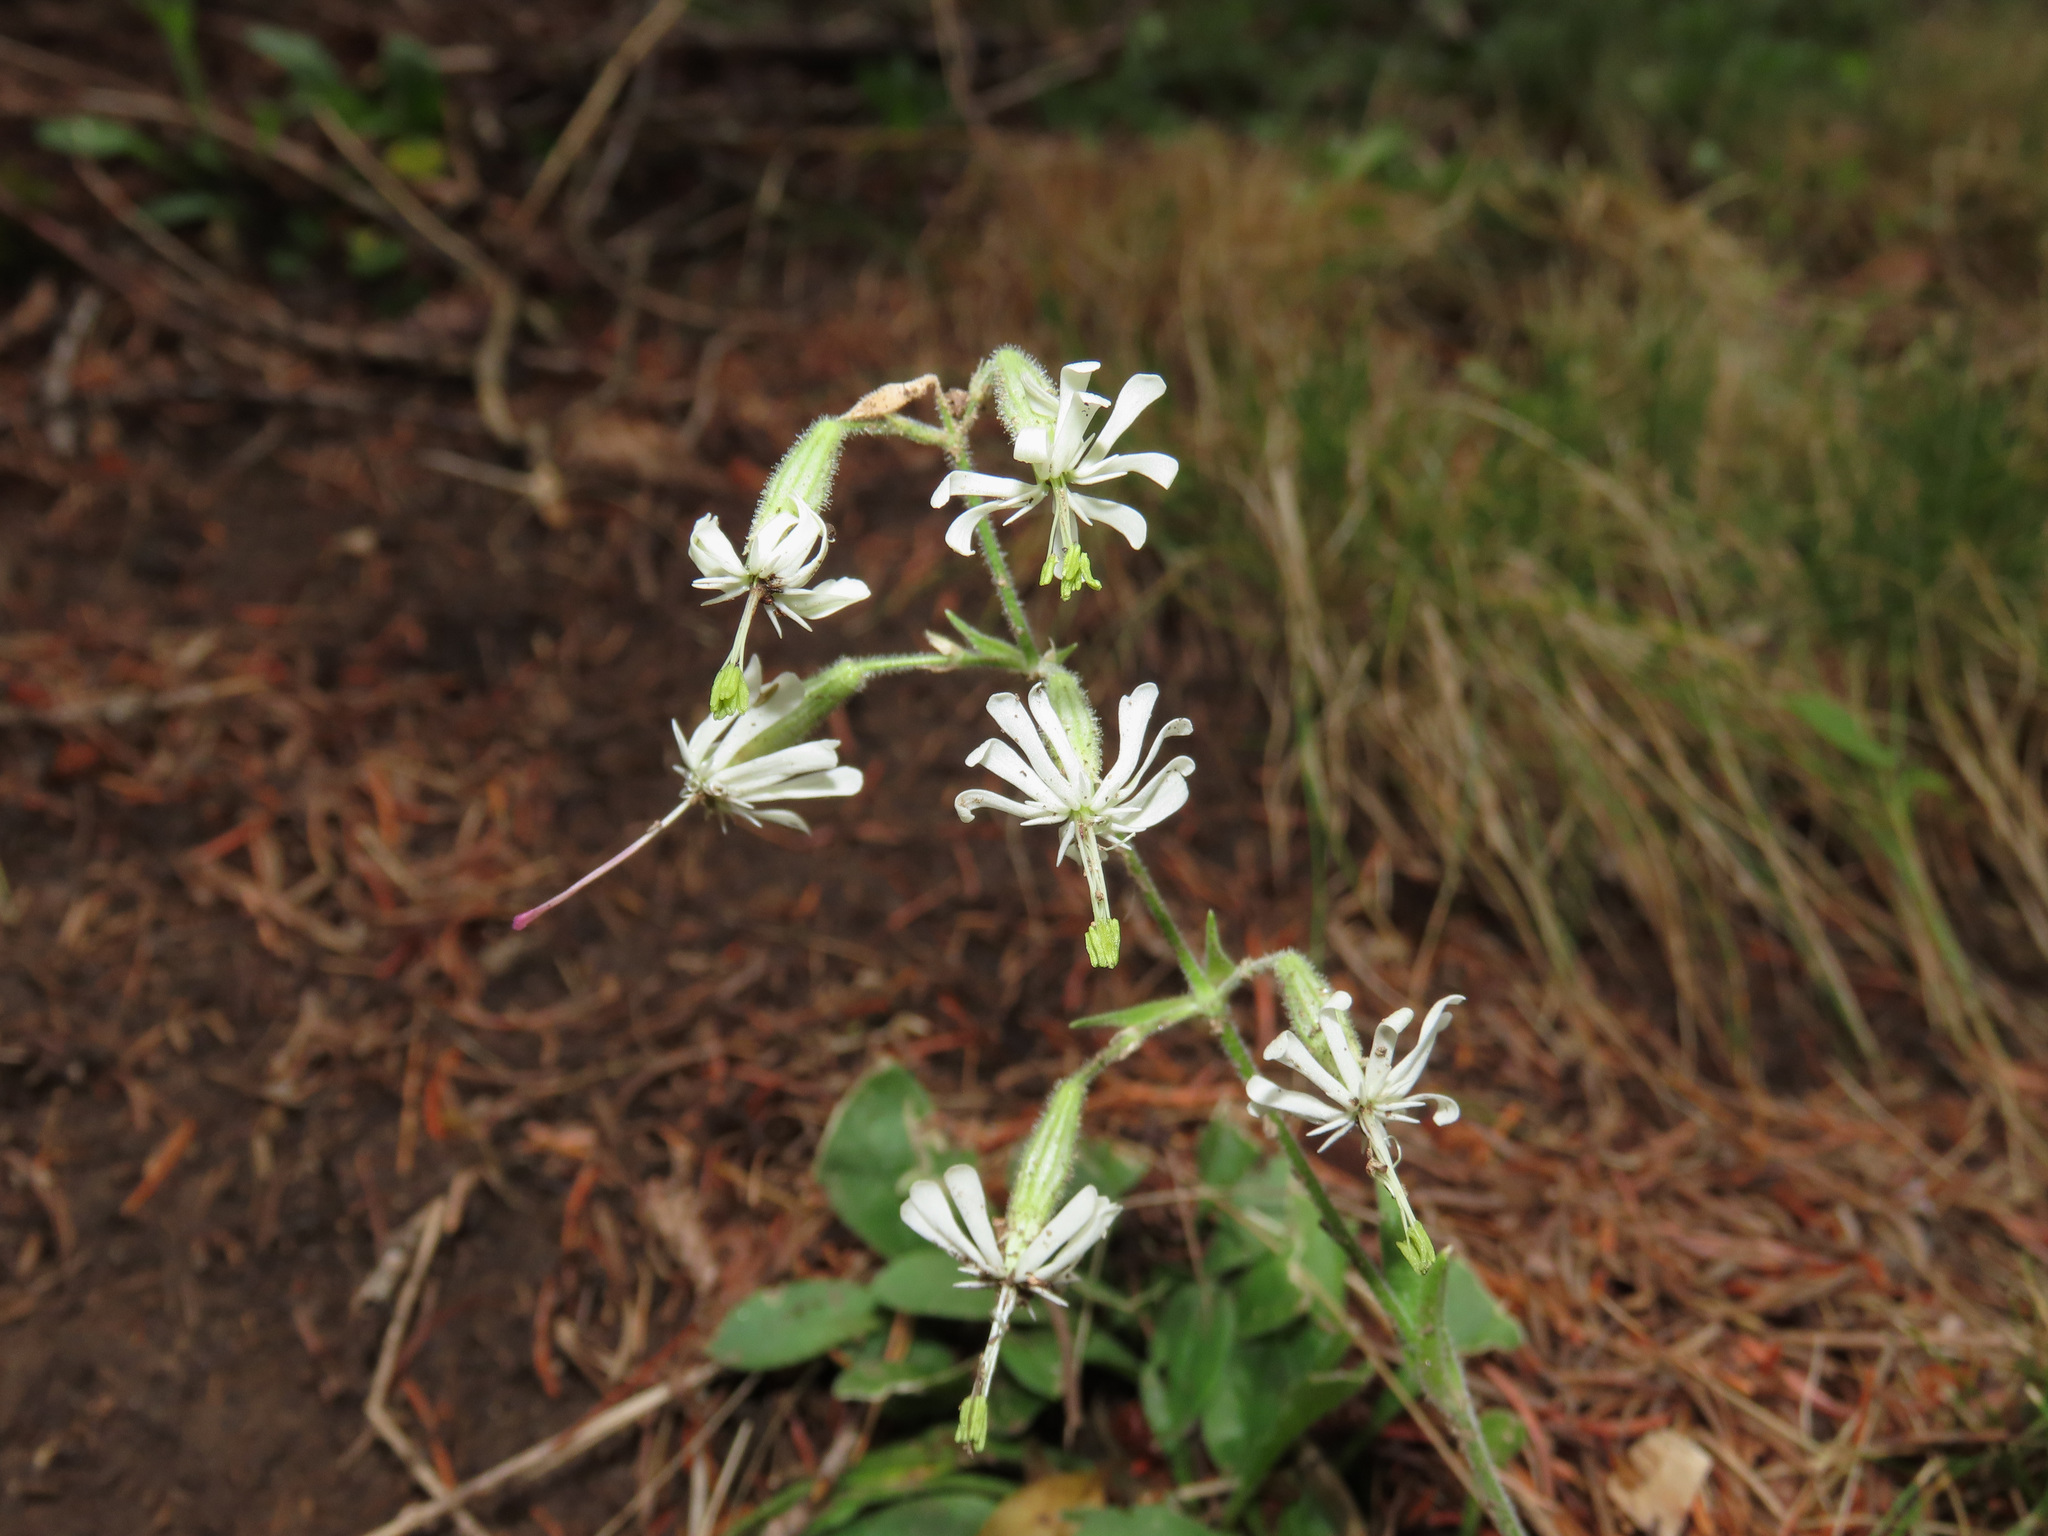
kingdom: Plantae
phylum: Tracheophyta
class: Magnoliopsida
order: Caryophyllales
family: Caryophyllaceae
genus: Silene
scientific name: Silene nutans
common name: Nottingham catchfly
